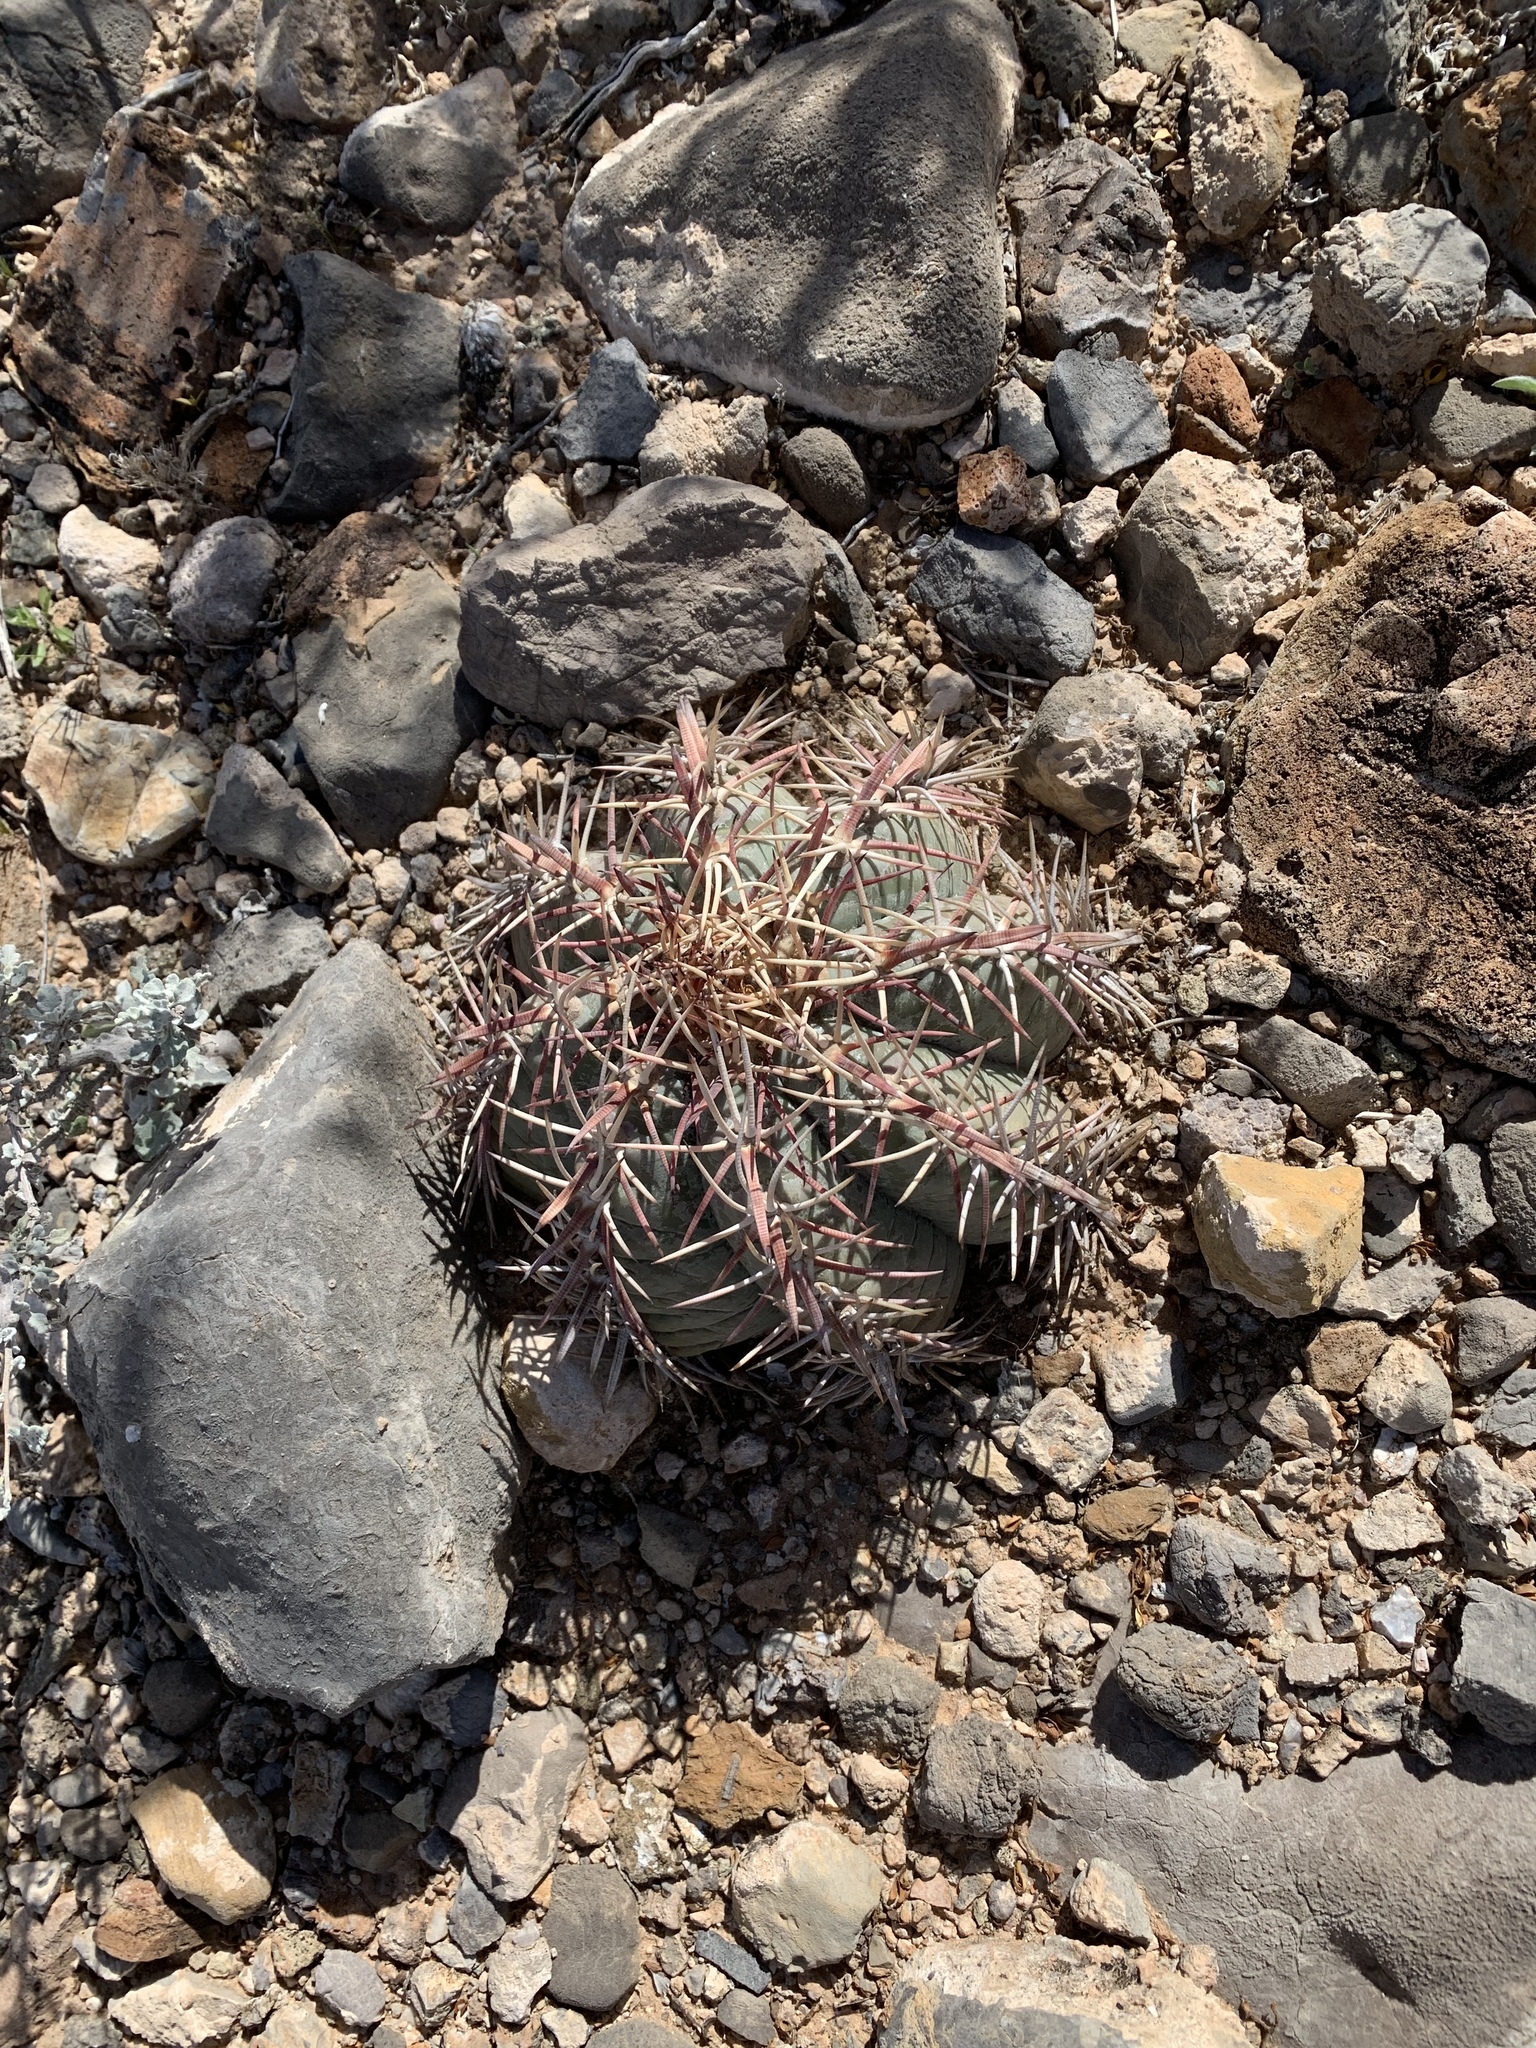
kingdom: Plantae
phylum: Tracheophyta
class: Magnoliopsida
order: Caryophyllales
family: Cactaceae
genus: Echinocactus
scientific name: Echinocactus horizonthalonius
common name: Devilshead
